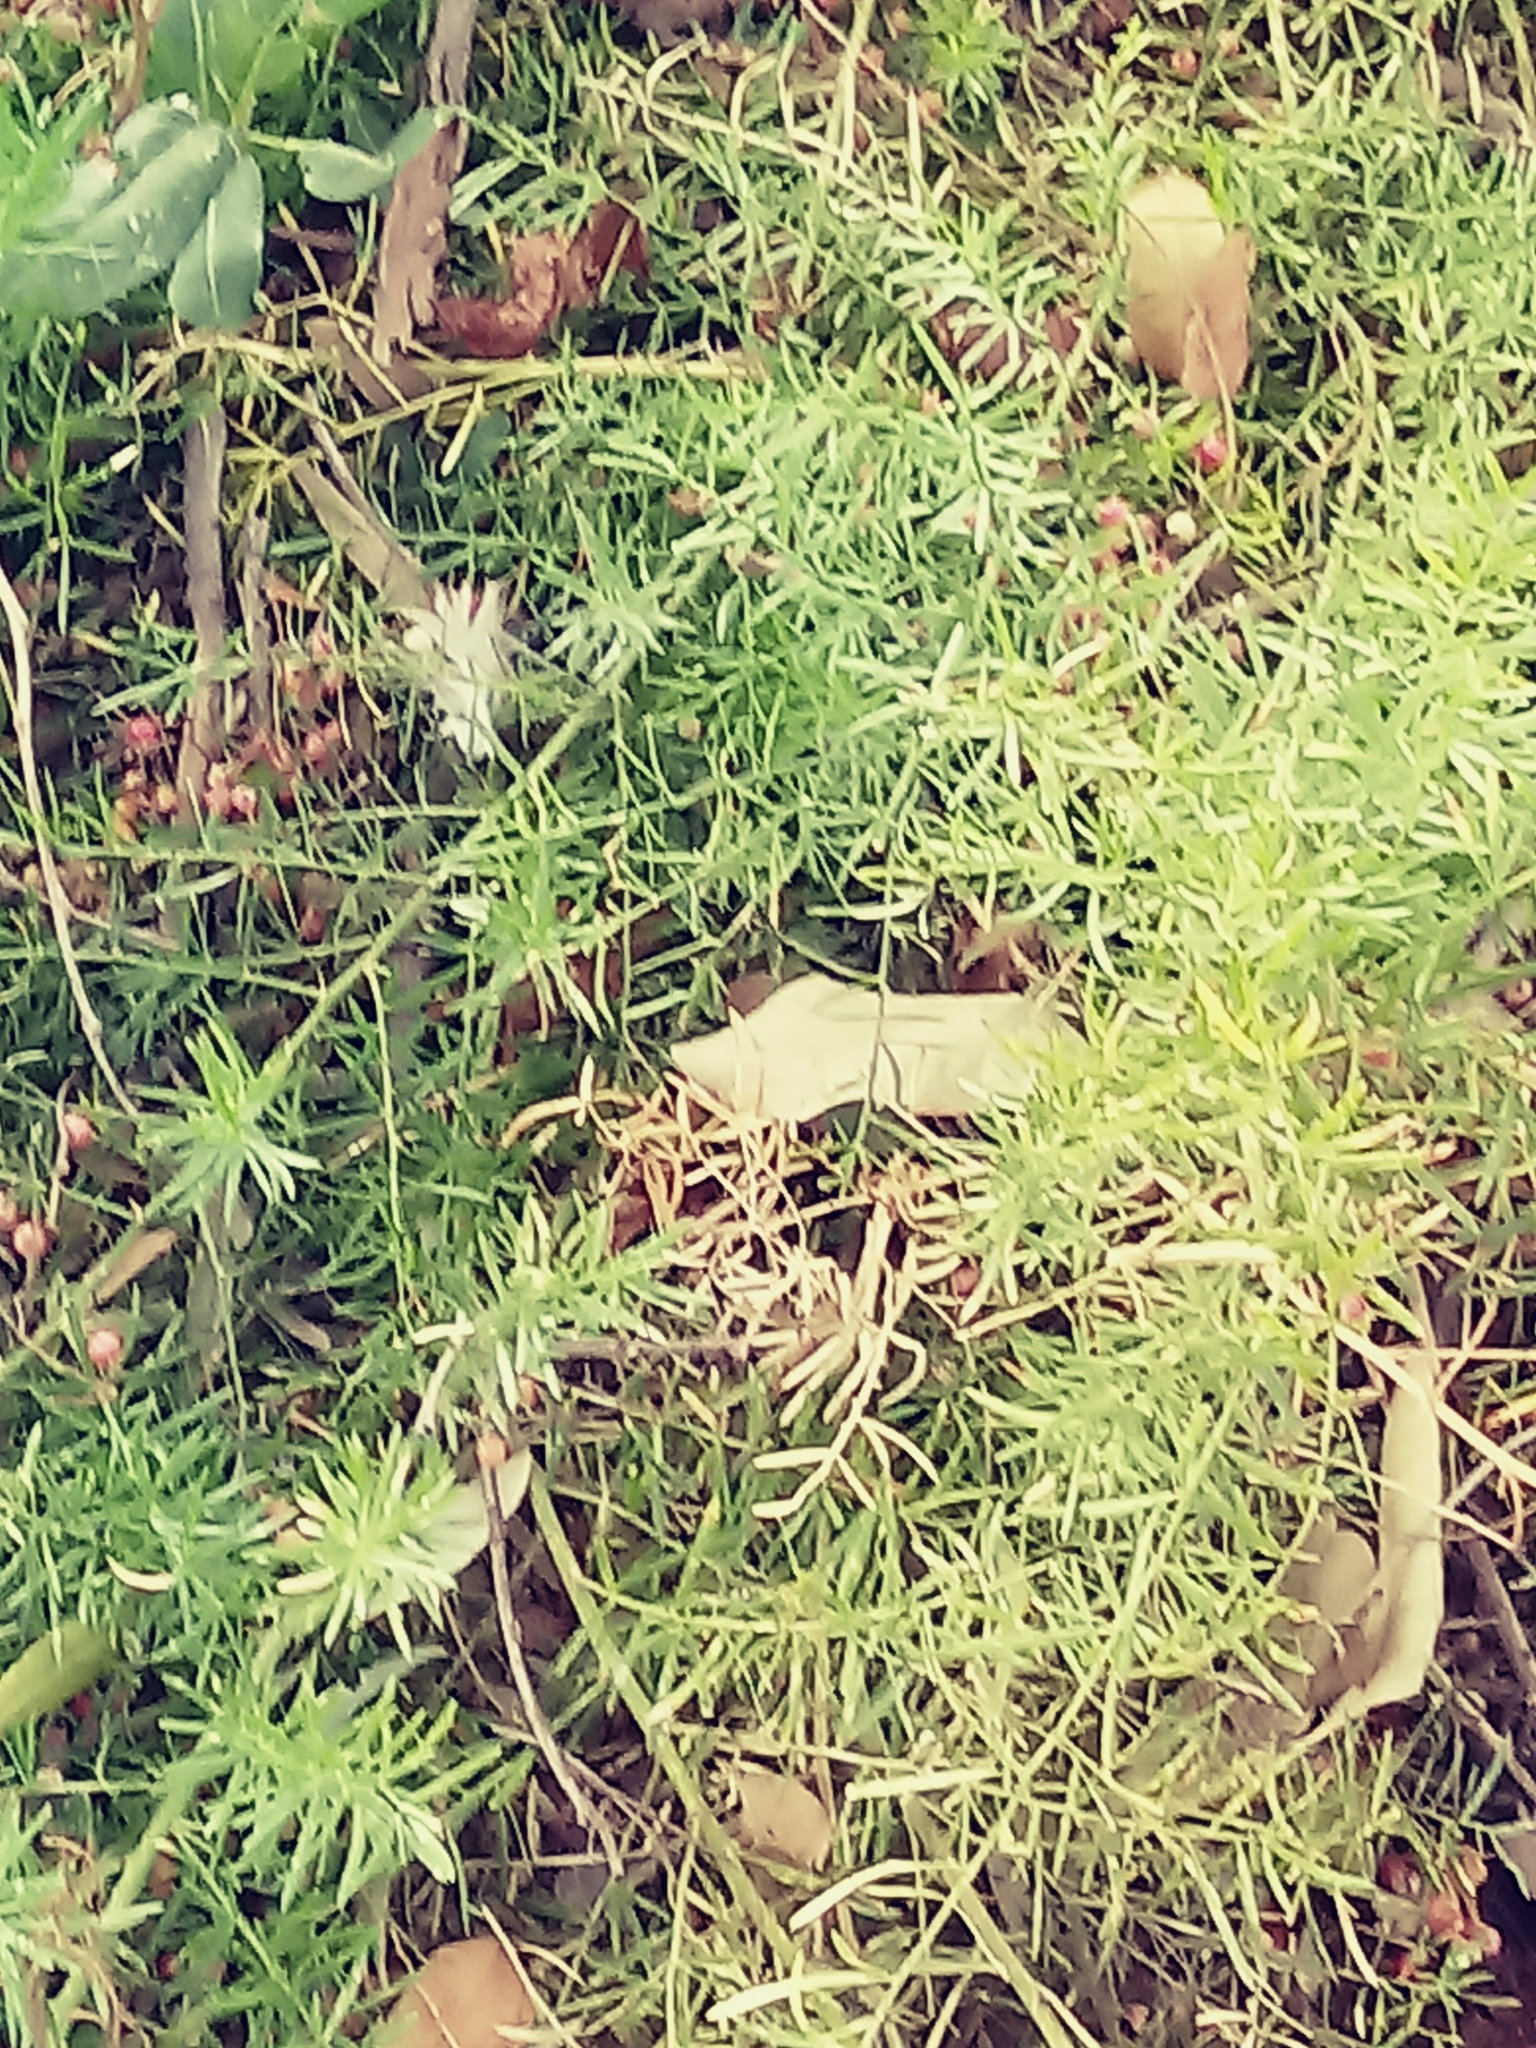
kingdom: Plantae
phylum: Tracheophyta
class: Liliopsida
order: Asparagales
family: Asparagaceae
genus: Asparagus
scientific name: Asparagus aethiopicus
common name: Sprenger's asparagus fern
